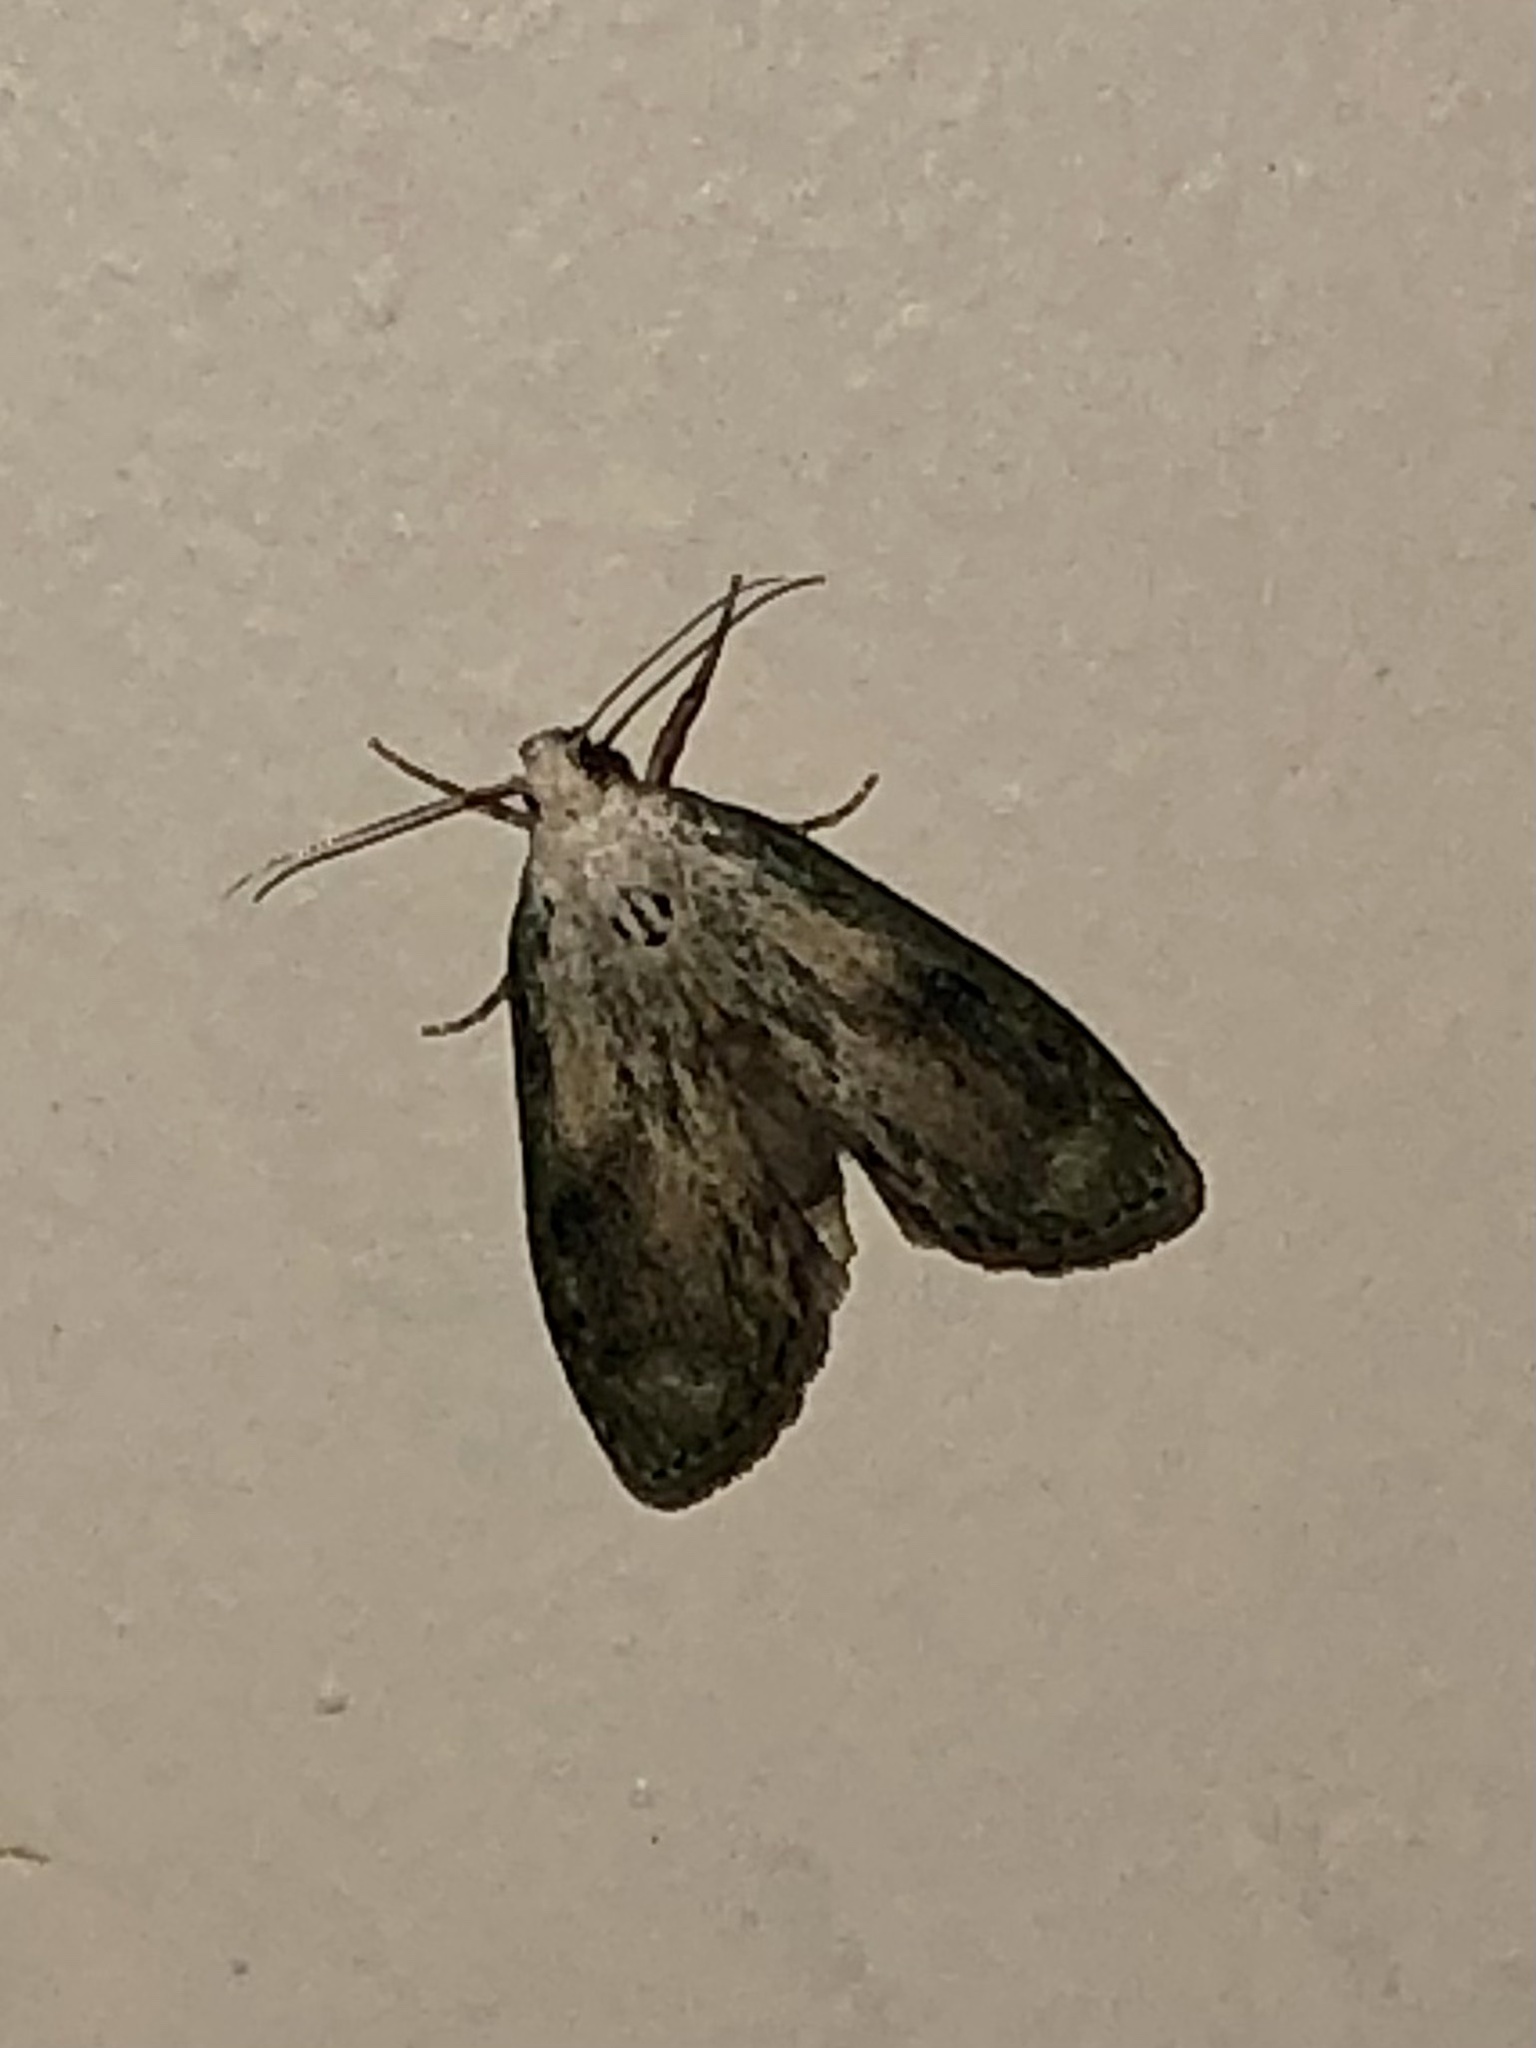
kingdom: Animalia
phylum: Arthropoda
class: Insecta
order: Lepidoptera
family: Pyralidae
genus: Aphomia
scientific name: Aphomia sociella
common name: Bee moth
